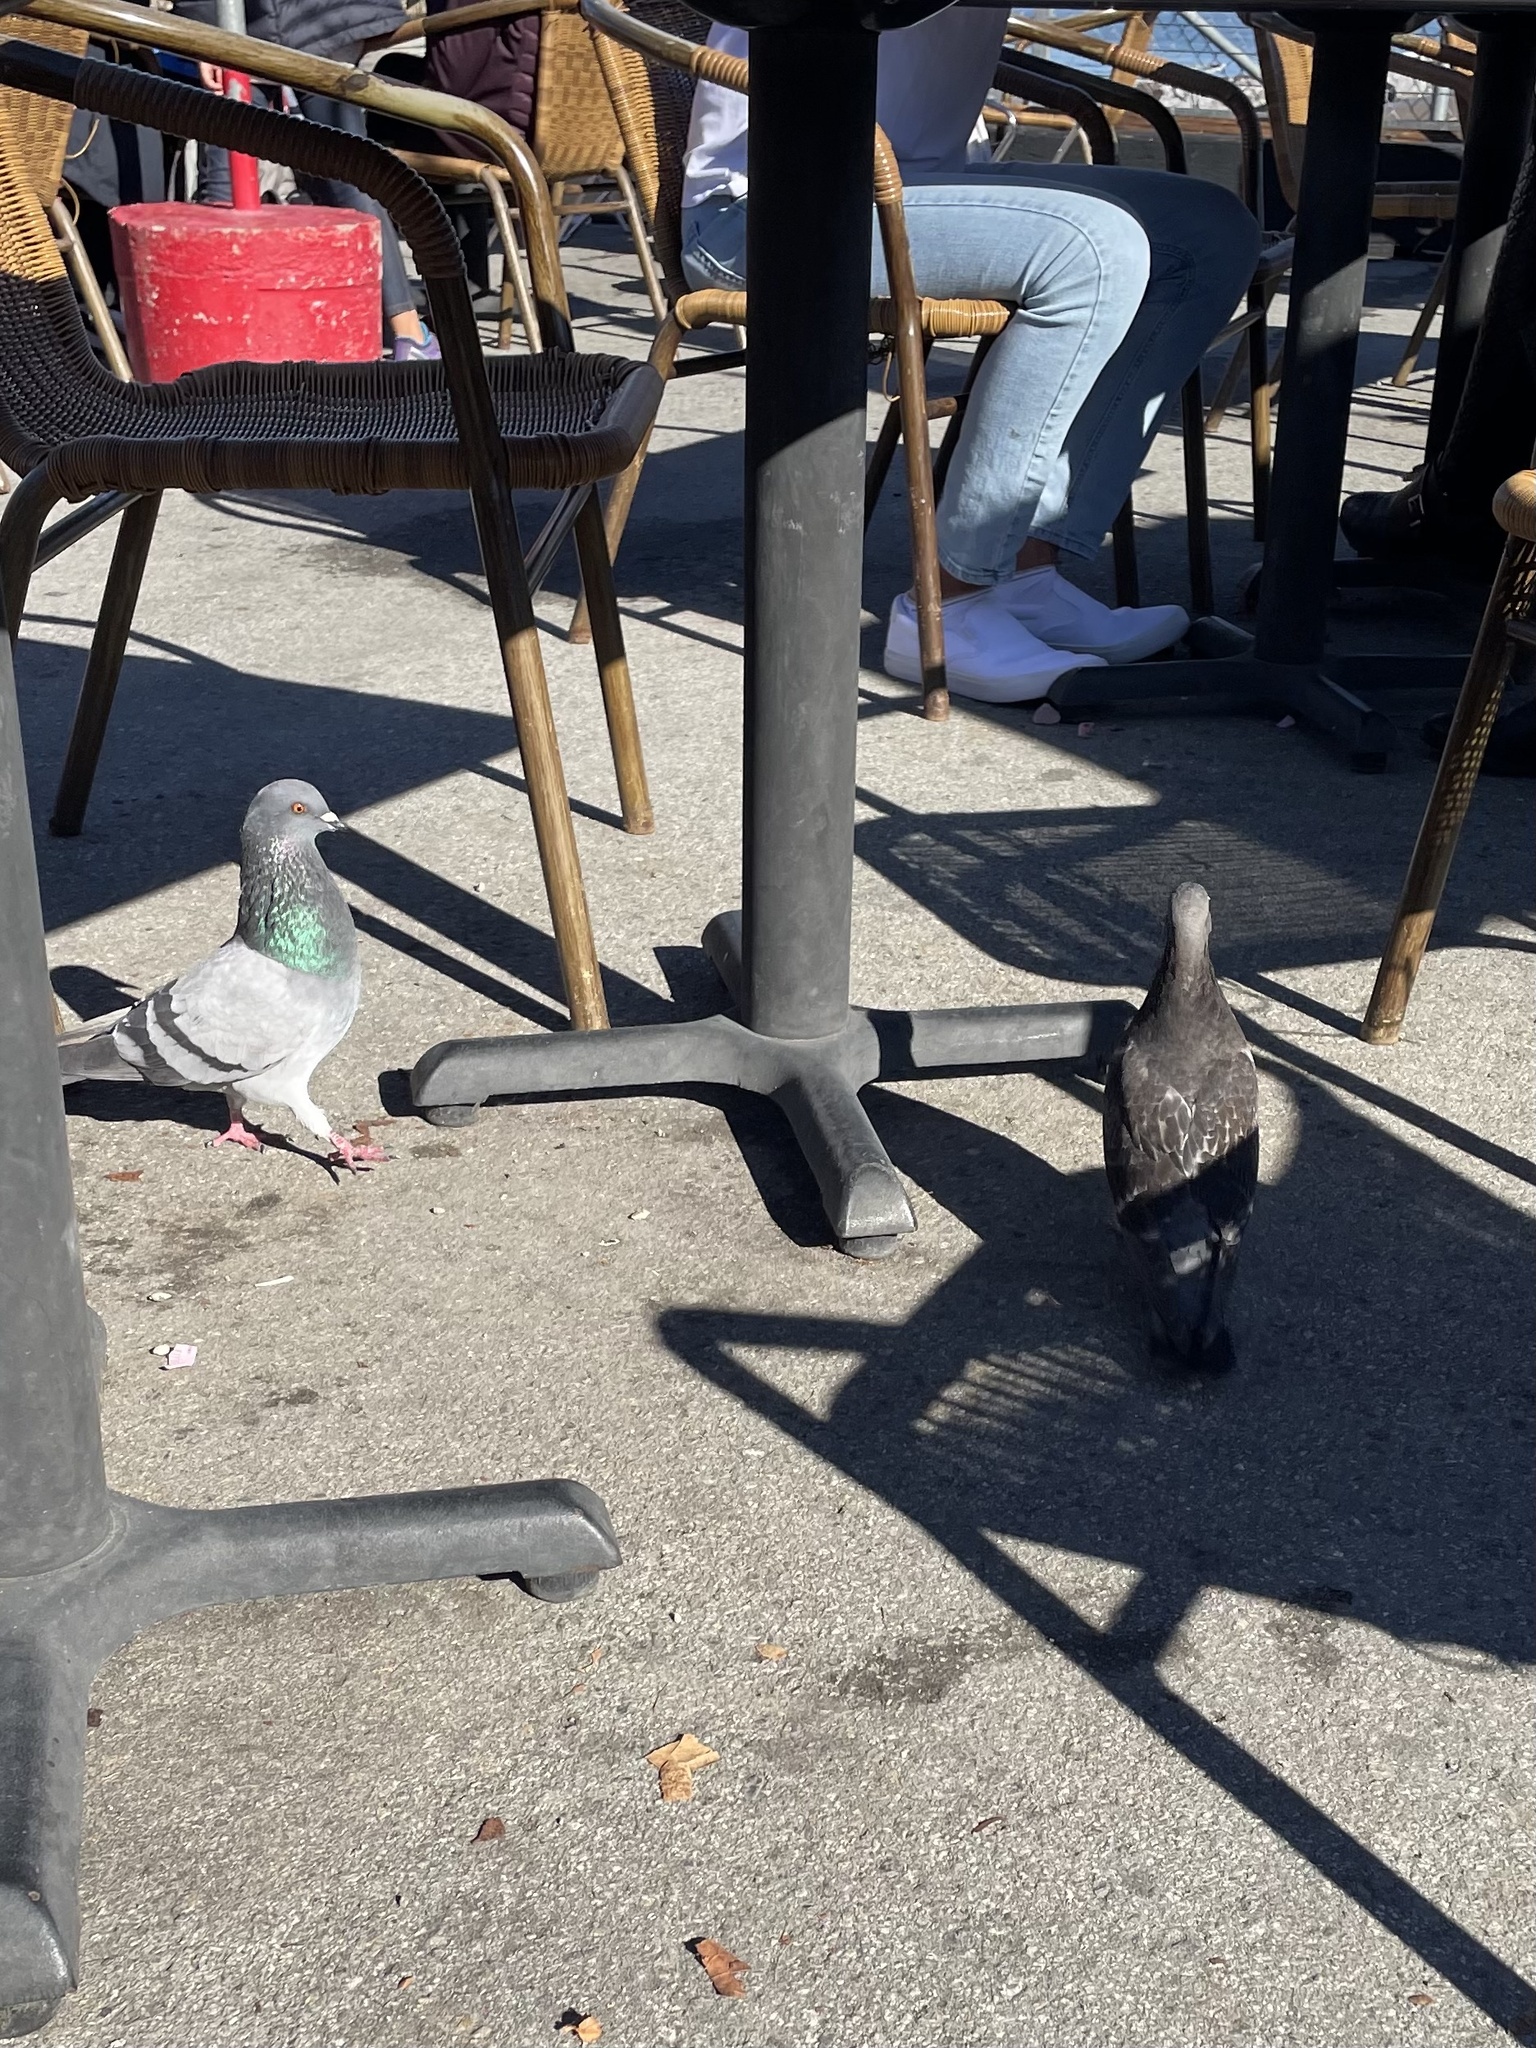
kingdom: Animalia
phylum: Chordata
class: Aves
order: Columbiformes
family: Columbidae
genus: Columba
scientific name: Columba livia
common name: Rock pigeon
